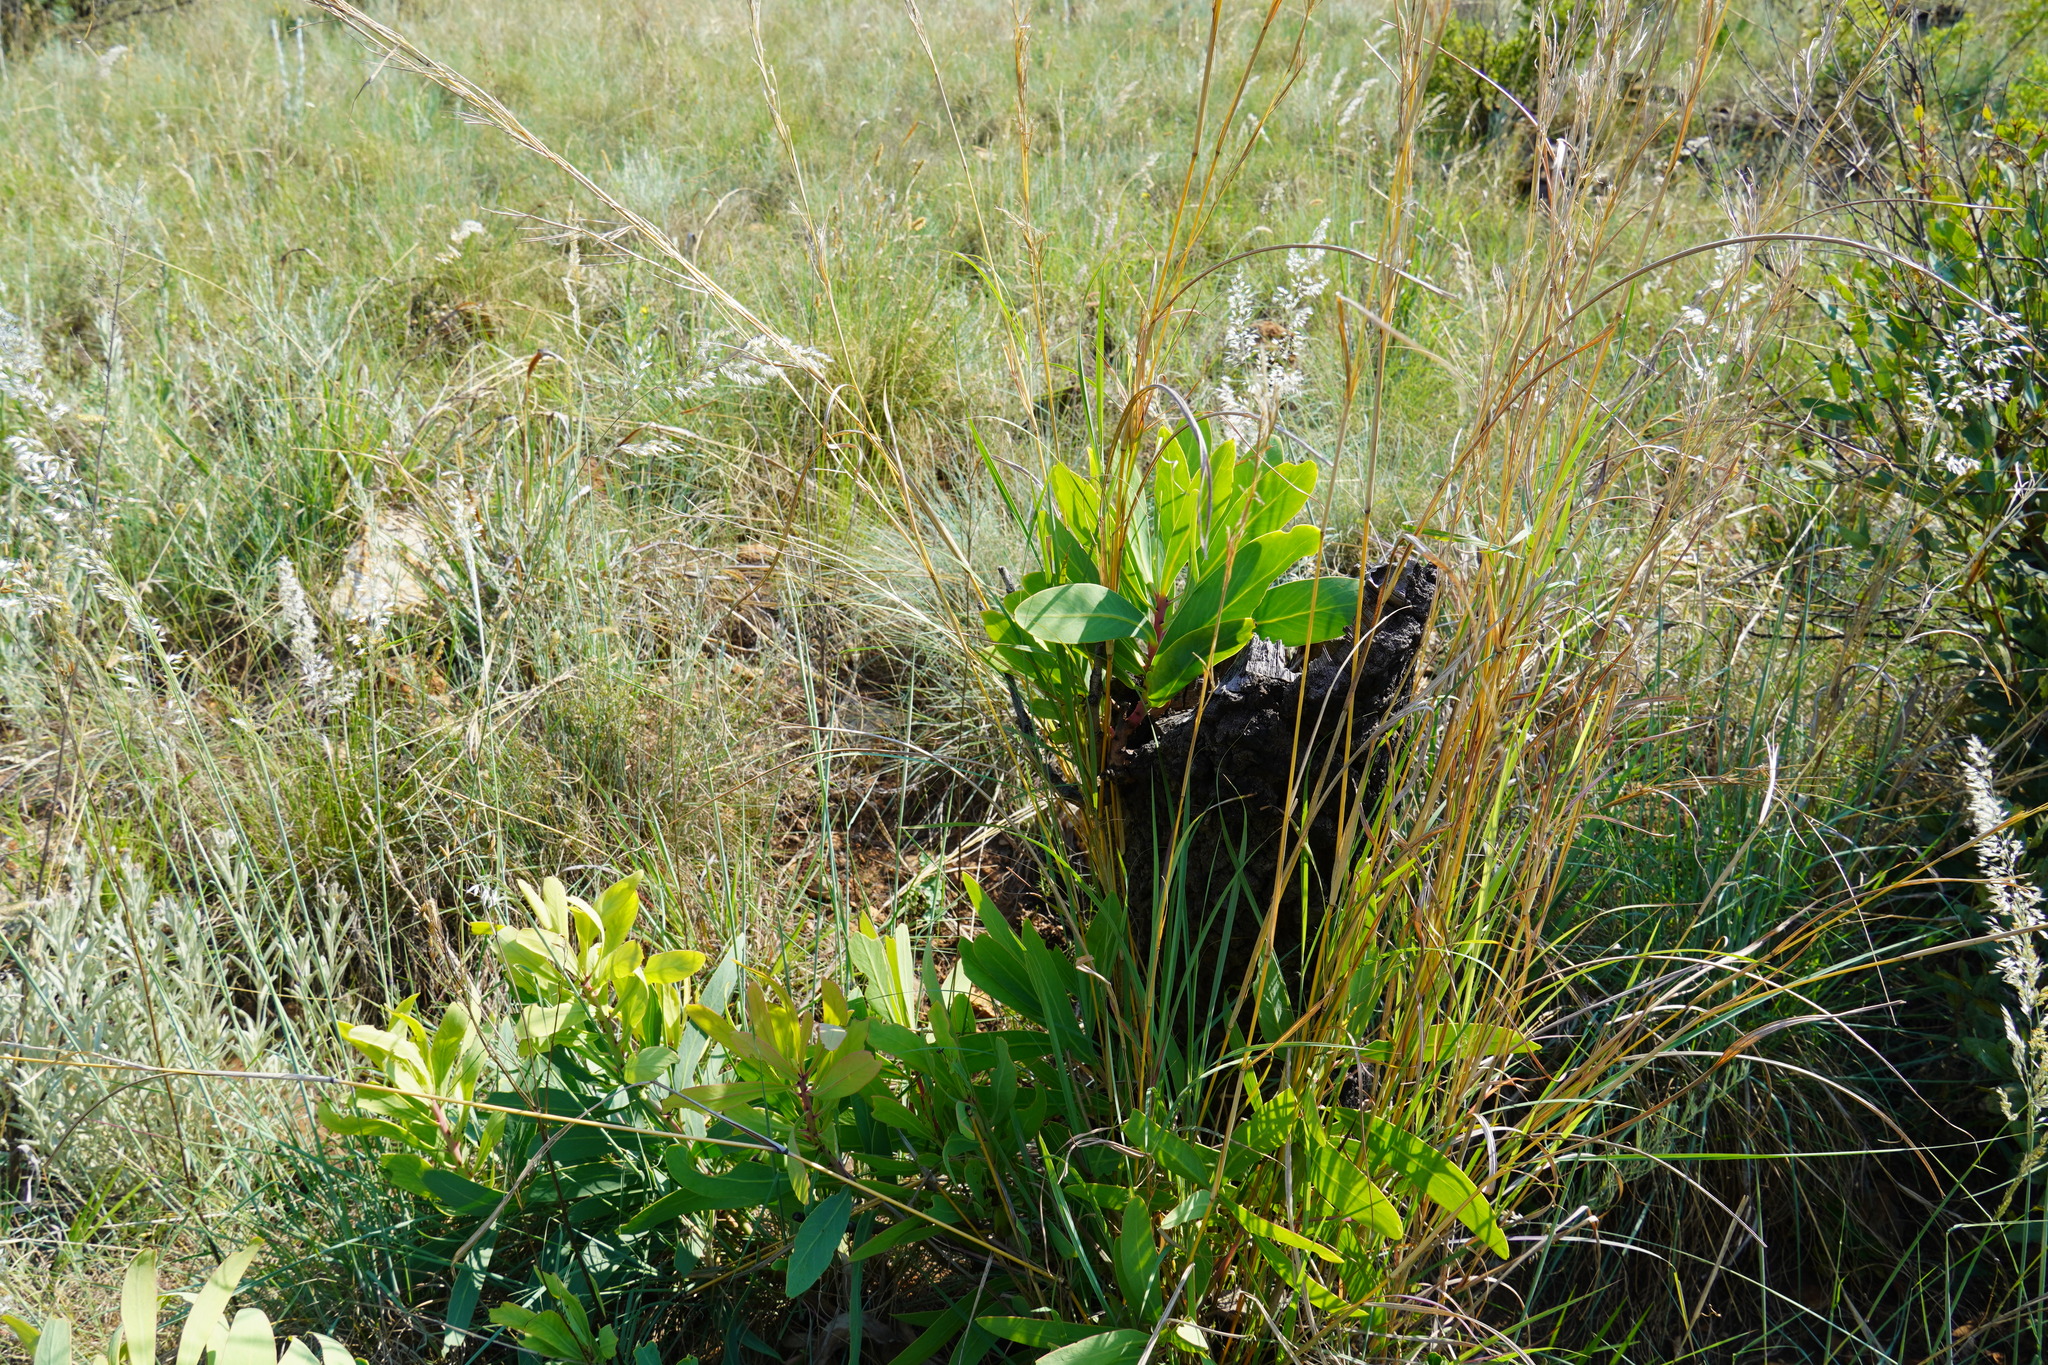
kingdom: Plantae
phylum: Tracheophyta
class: Magnoliopsida
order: Proteales
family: Proteaceae
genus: Protea
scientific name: Protea caffra
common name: Common sugarbush
